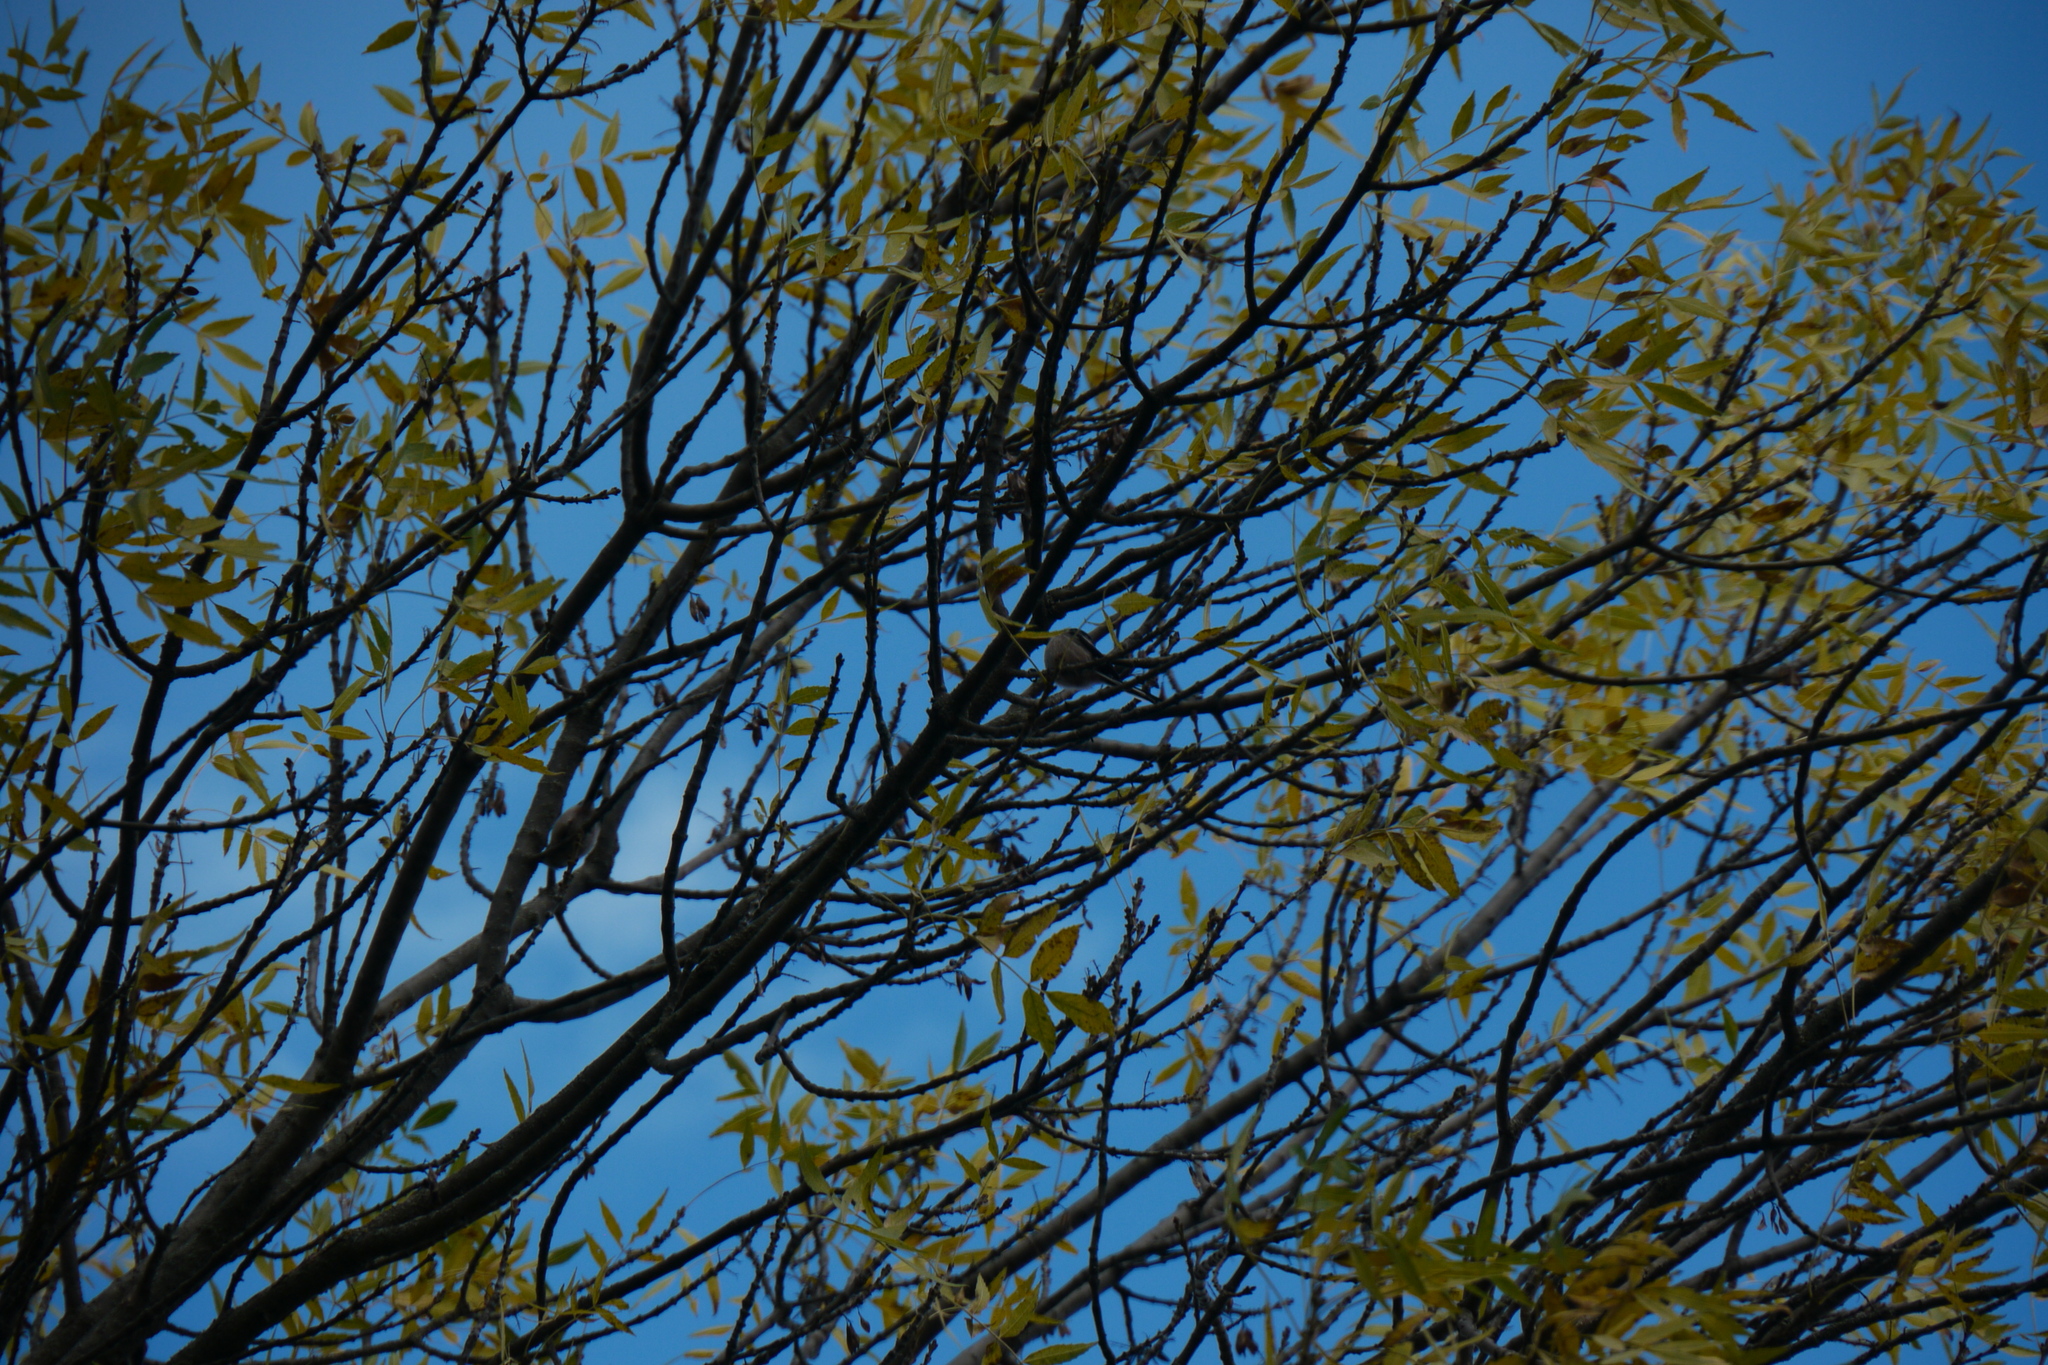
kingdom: Animalia
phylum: Chordata
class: Aves
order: Passeriformes
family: Aegithalidae
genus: Aegithalos
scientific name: Aegithalos caudatus
